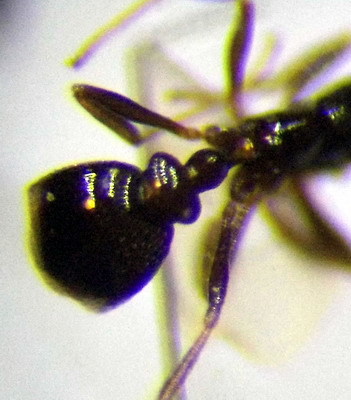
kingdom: Animalia
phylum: Arthropoda
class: Insecta
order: Hymenoptera
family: Formicidae
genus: Cardiocondyla
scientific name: Cardiocondyla ulianini
